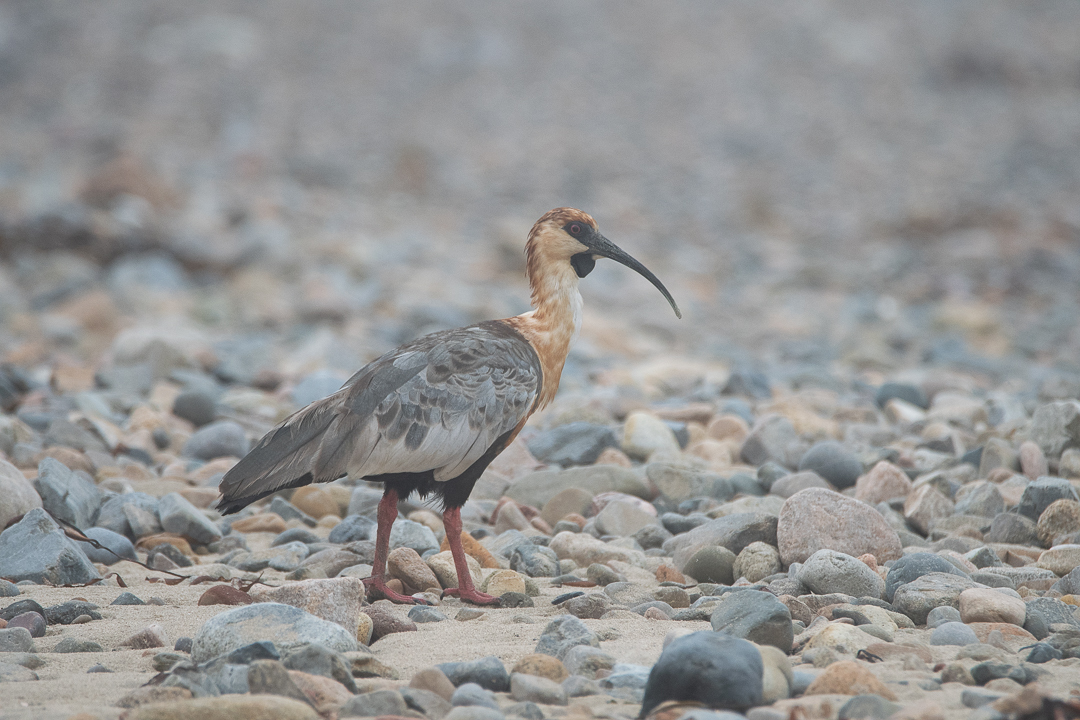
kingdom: Animalia
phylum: Chordata
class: Aves
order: Pelecaniformes
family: Threskiornithidae
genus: Theristicus
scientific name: Theristicus melanopis
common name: Black-faced ibis
